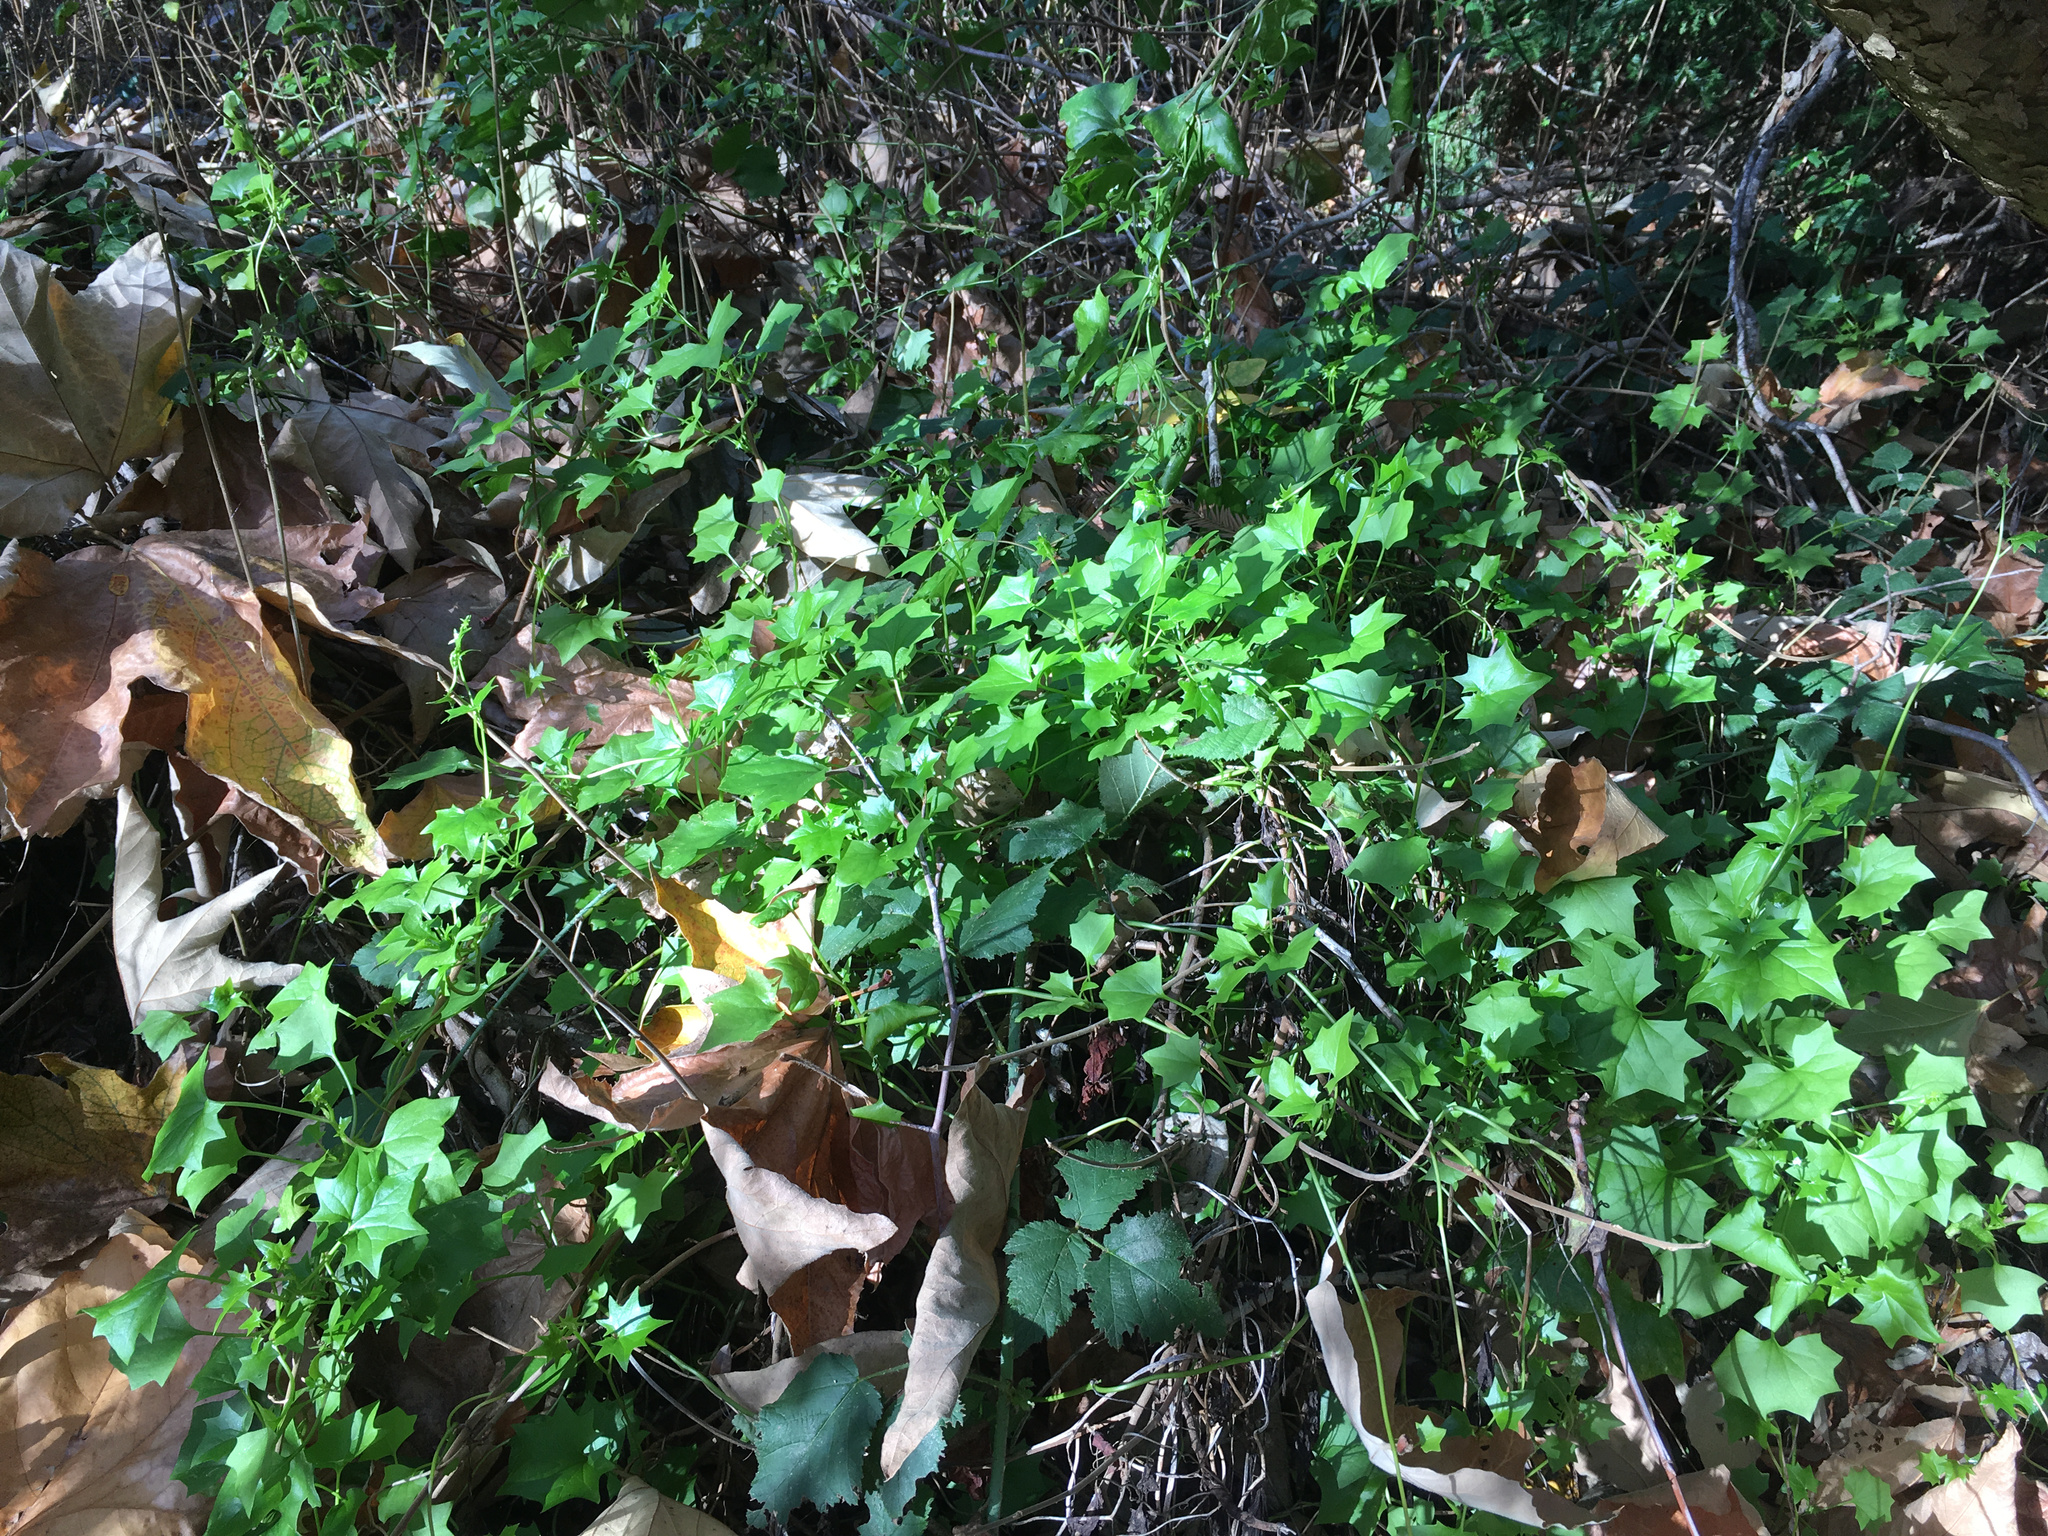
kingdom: Plantae
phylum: Tracheophyta
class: Magnoliopsida
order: Asterales
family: Asteraceae
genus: Delairea
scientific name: Delairea odorata
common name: Cape-ivy
